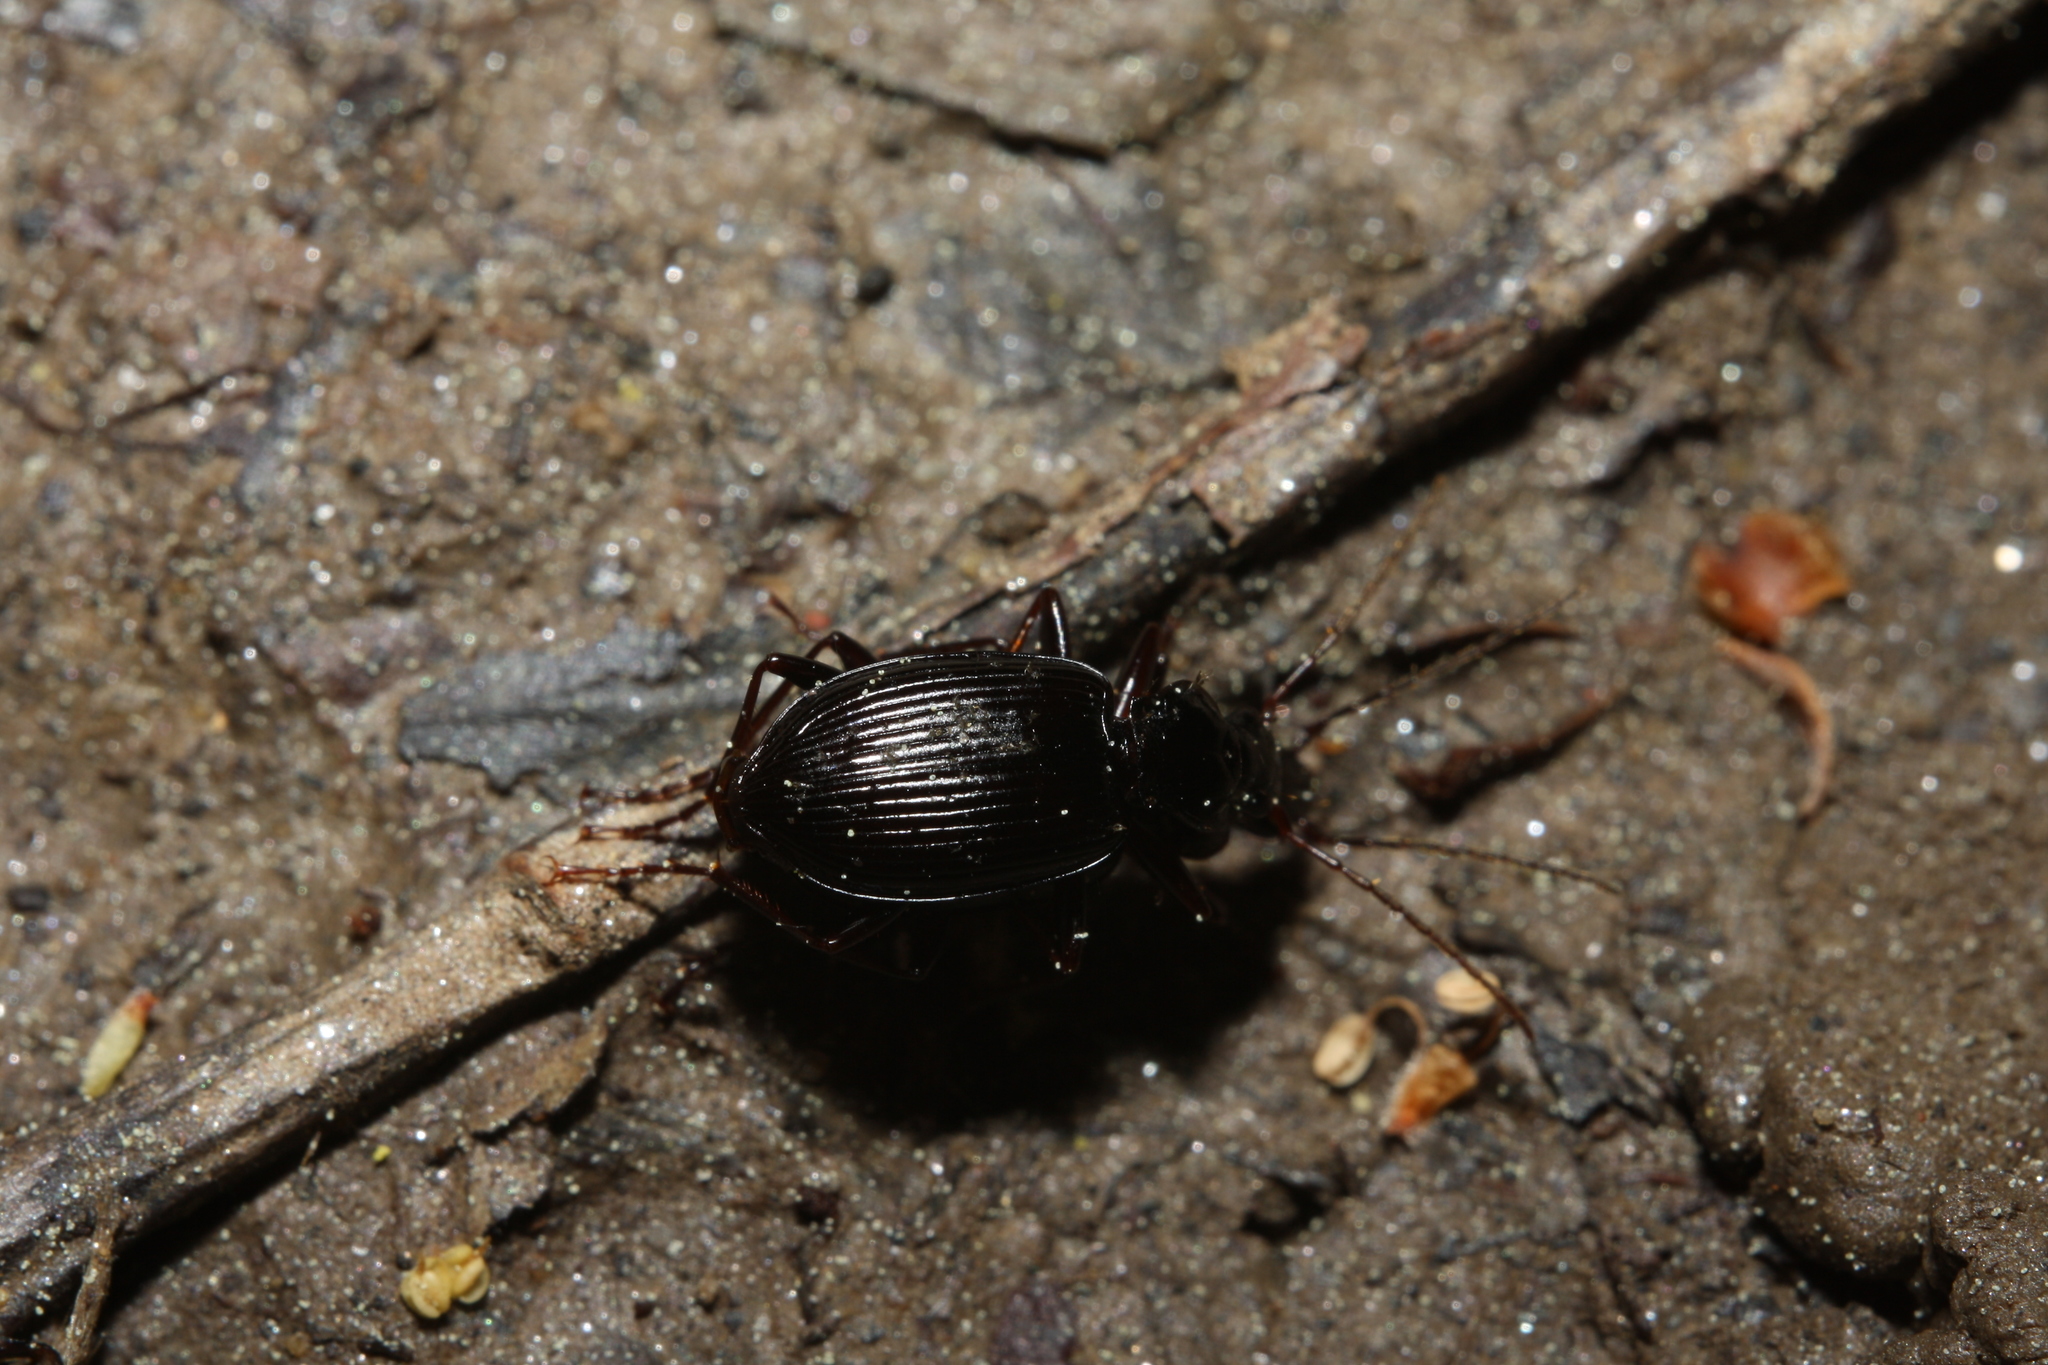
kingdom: Animalia
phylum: Arthropoda
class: Insecta
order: Coleoptera
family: Carabidae
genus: Platynus
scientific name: Platynus assimilis
